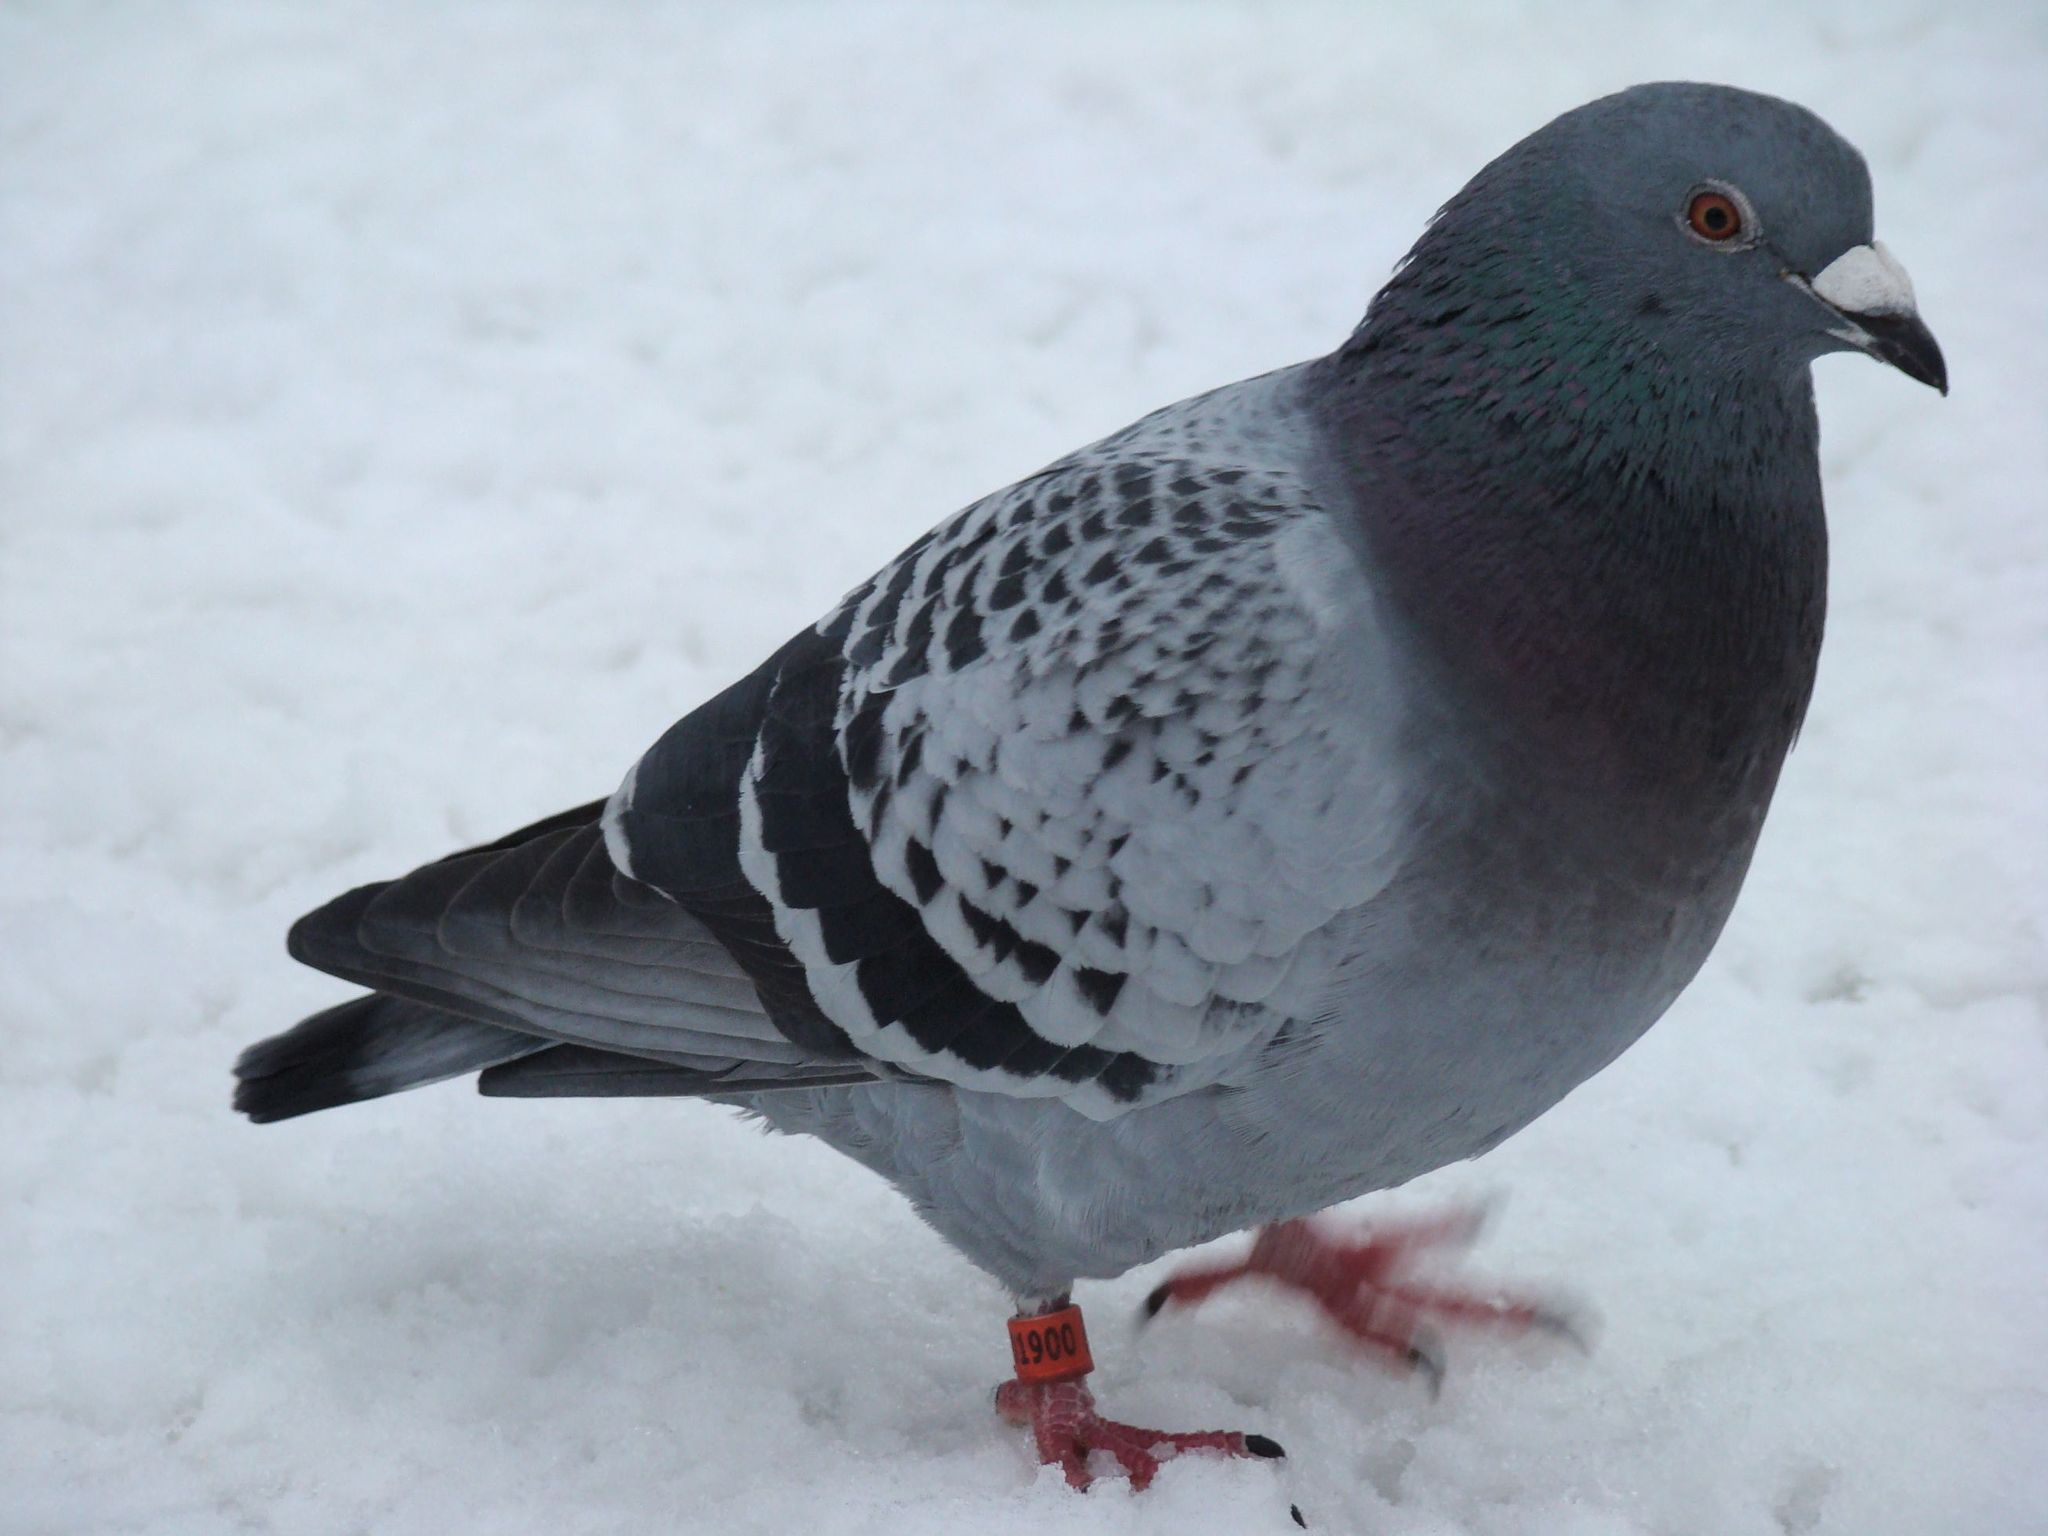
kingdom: Animalia
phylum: Chordata
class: Aves
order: Columbiformes
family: Columbidae
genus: Columba
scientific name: Columba livia
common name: Rock pigeon
